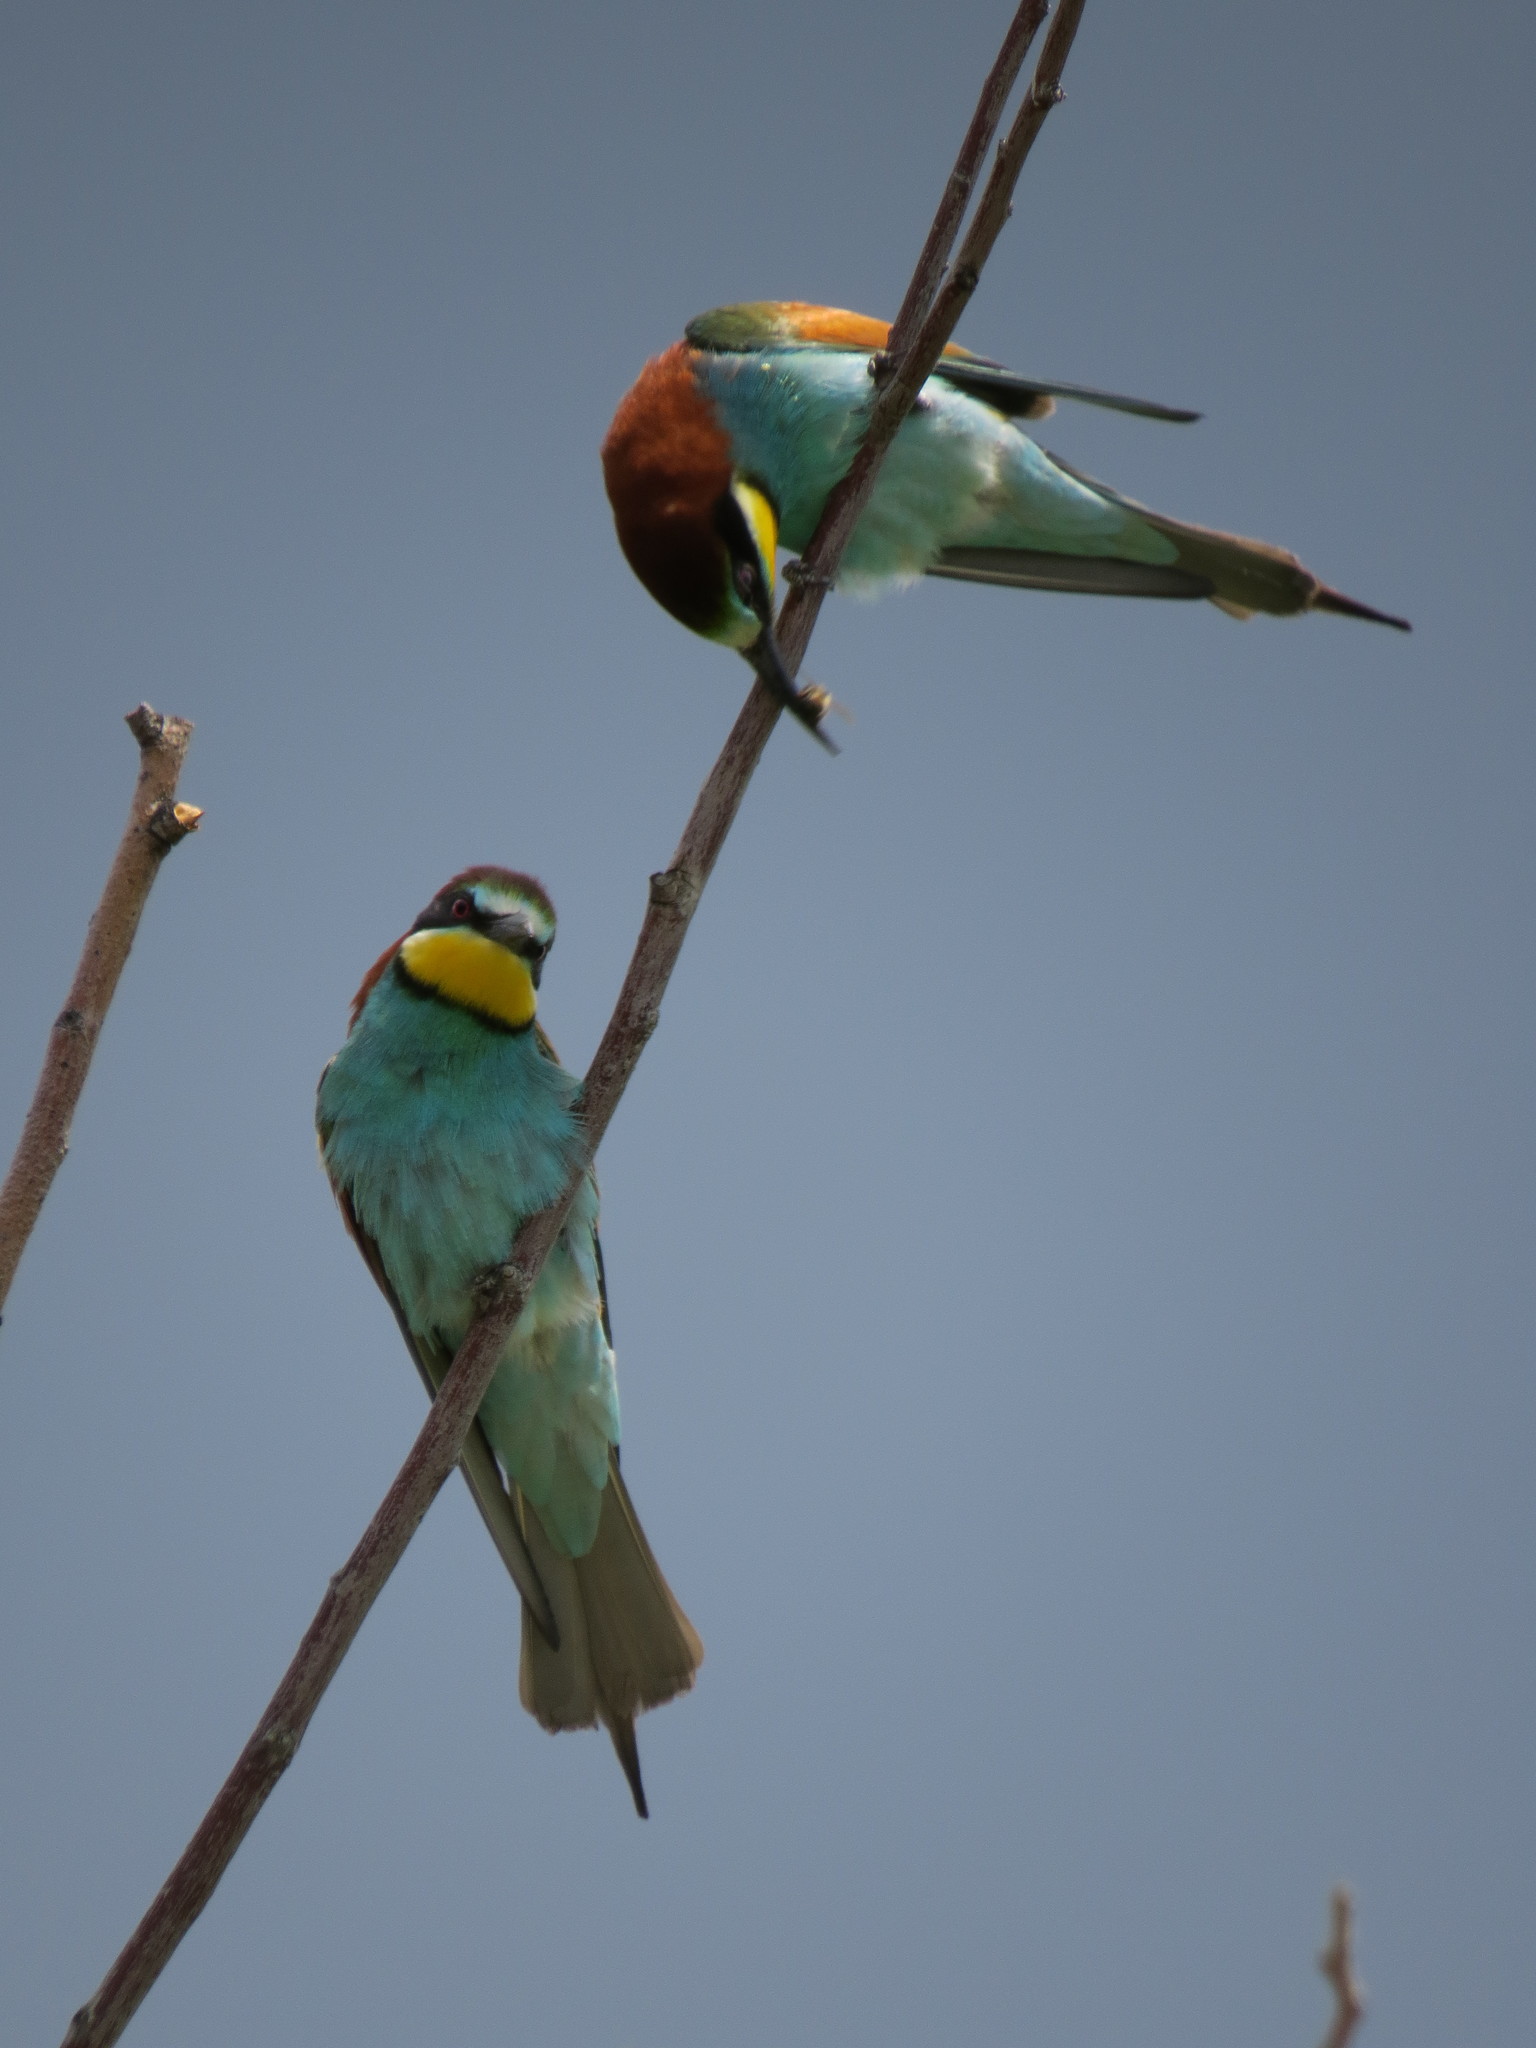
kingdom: Animalia
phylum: Chordata
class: Aves
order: Coraciiformes
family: Meropidae
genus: Merops
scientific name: Merops apiaster
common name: European bee-eater
